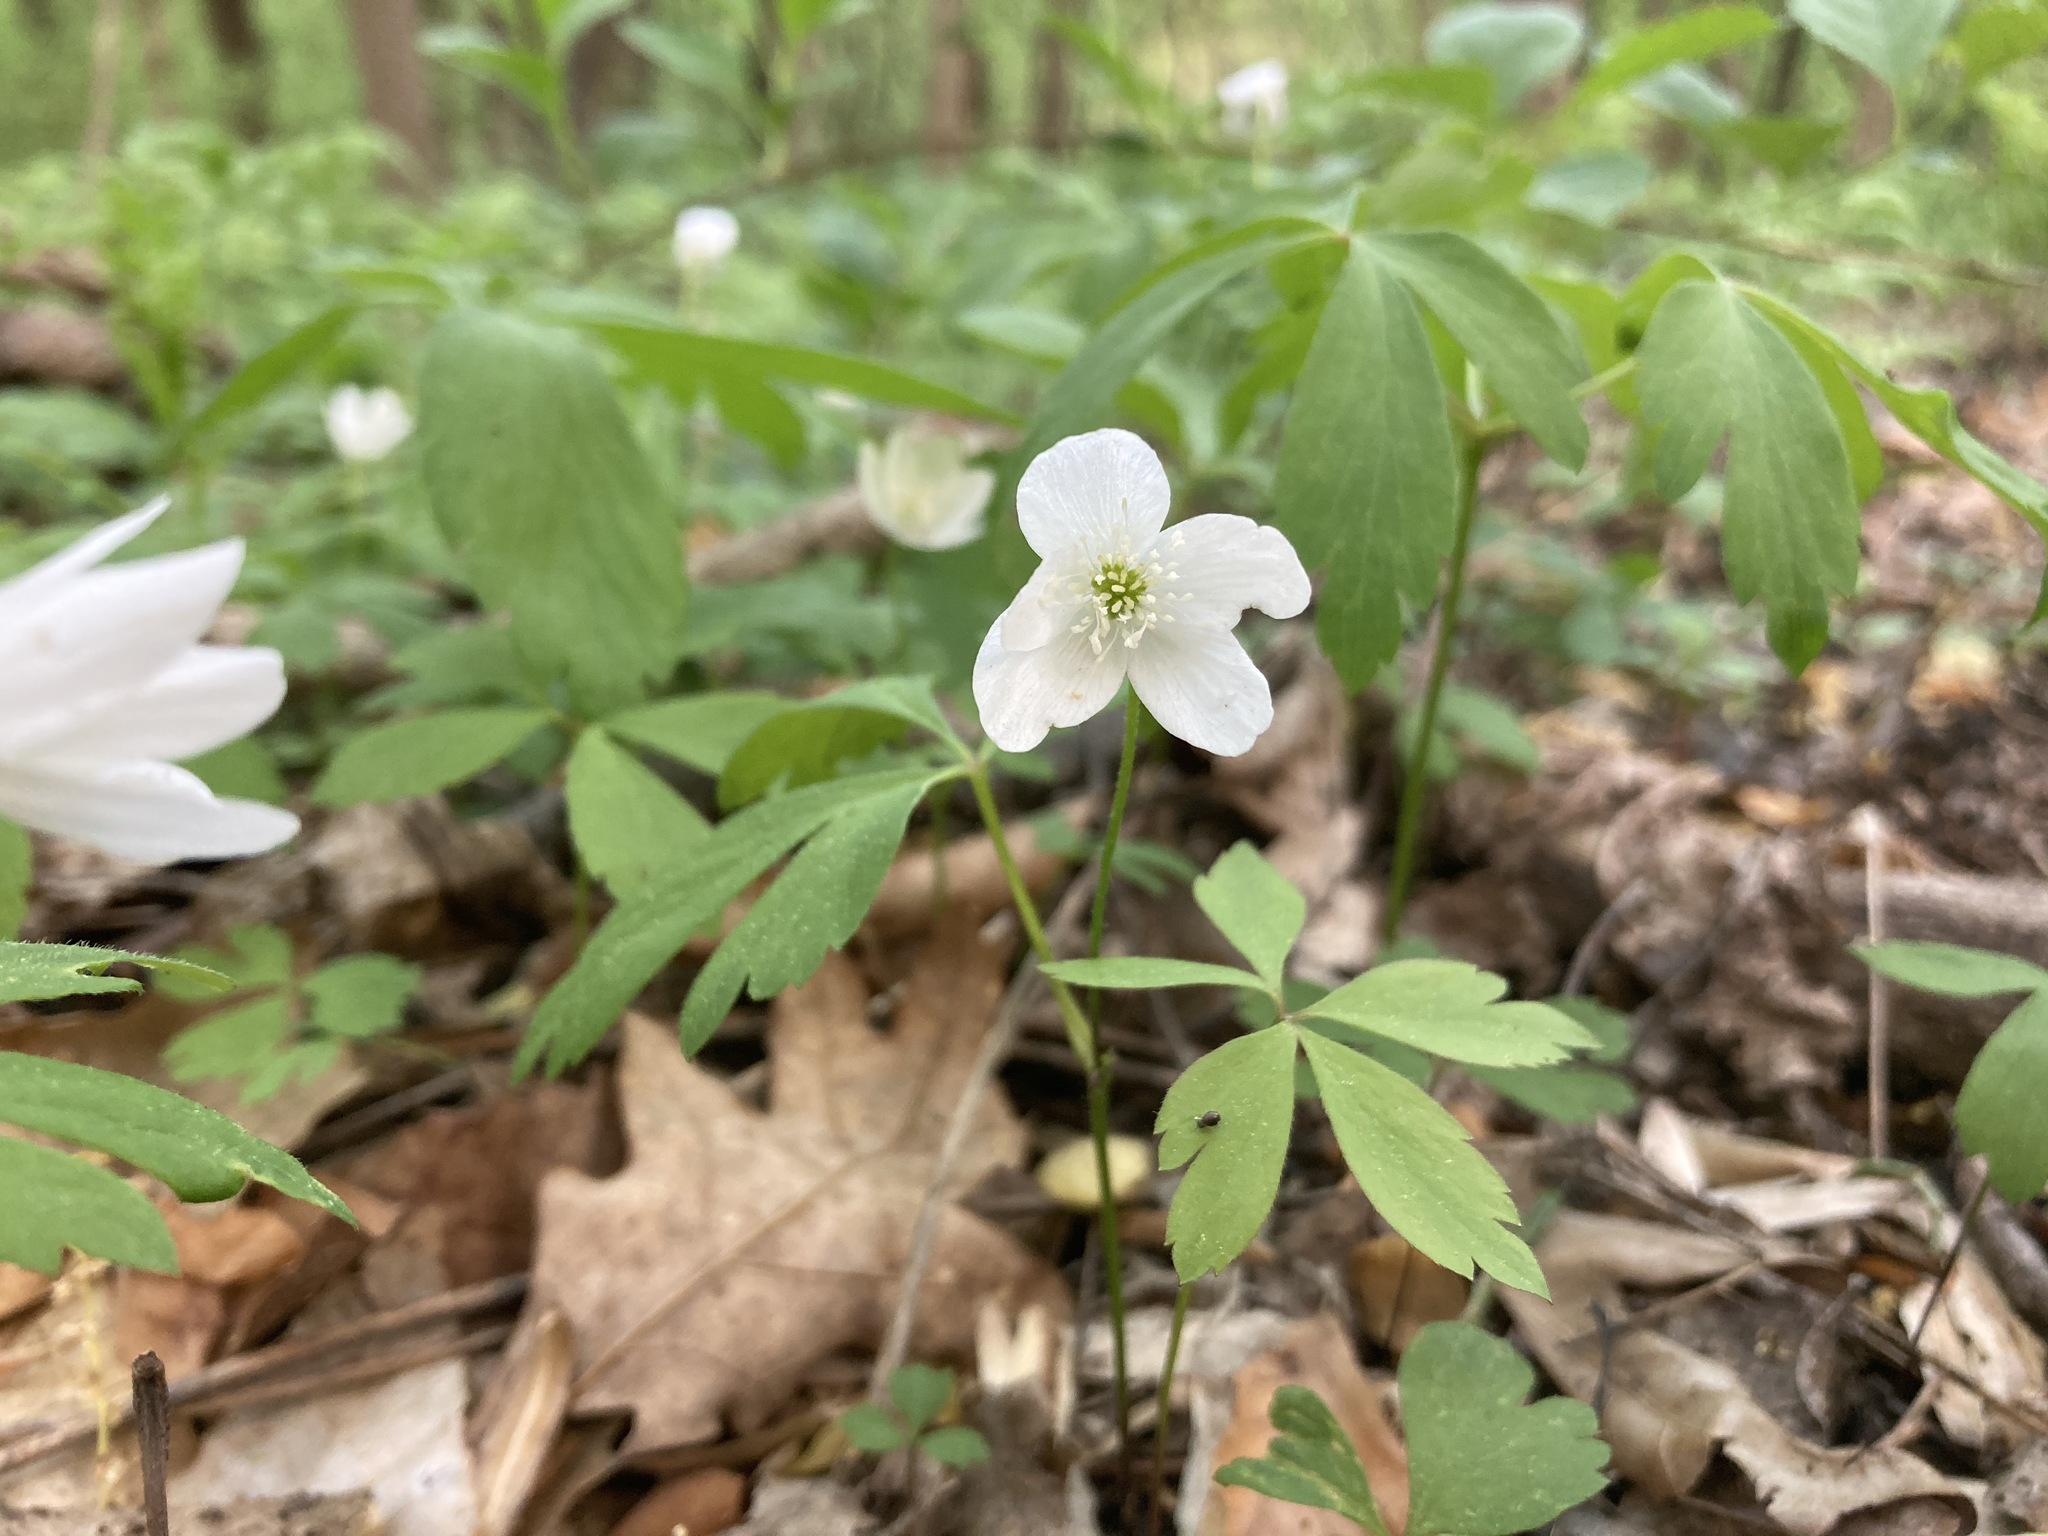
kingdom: Plantae
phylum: Tracheophyta
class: Magnoliopsida
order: Ranunculales
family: Ranunculaceae
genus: Anemone
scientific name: Anemone quinquefolia
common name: Wood anemone
